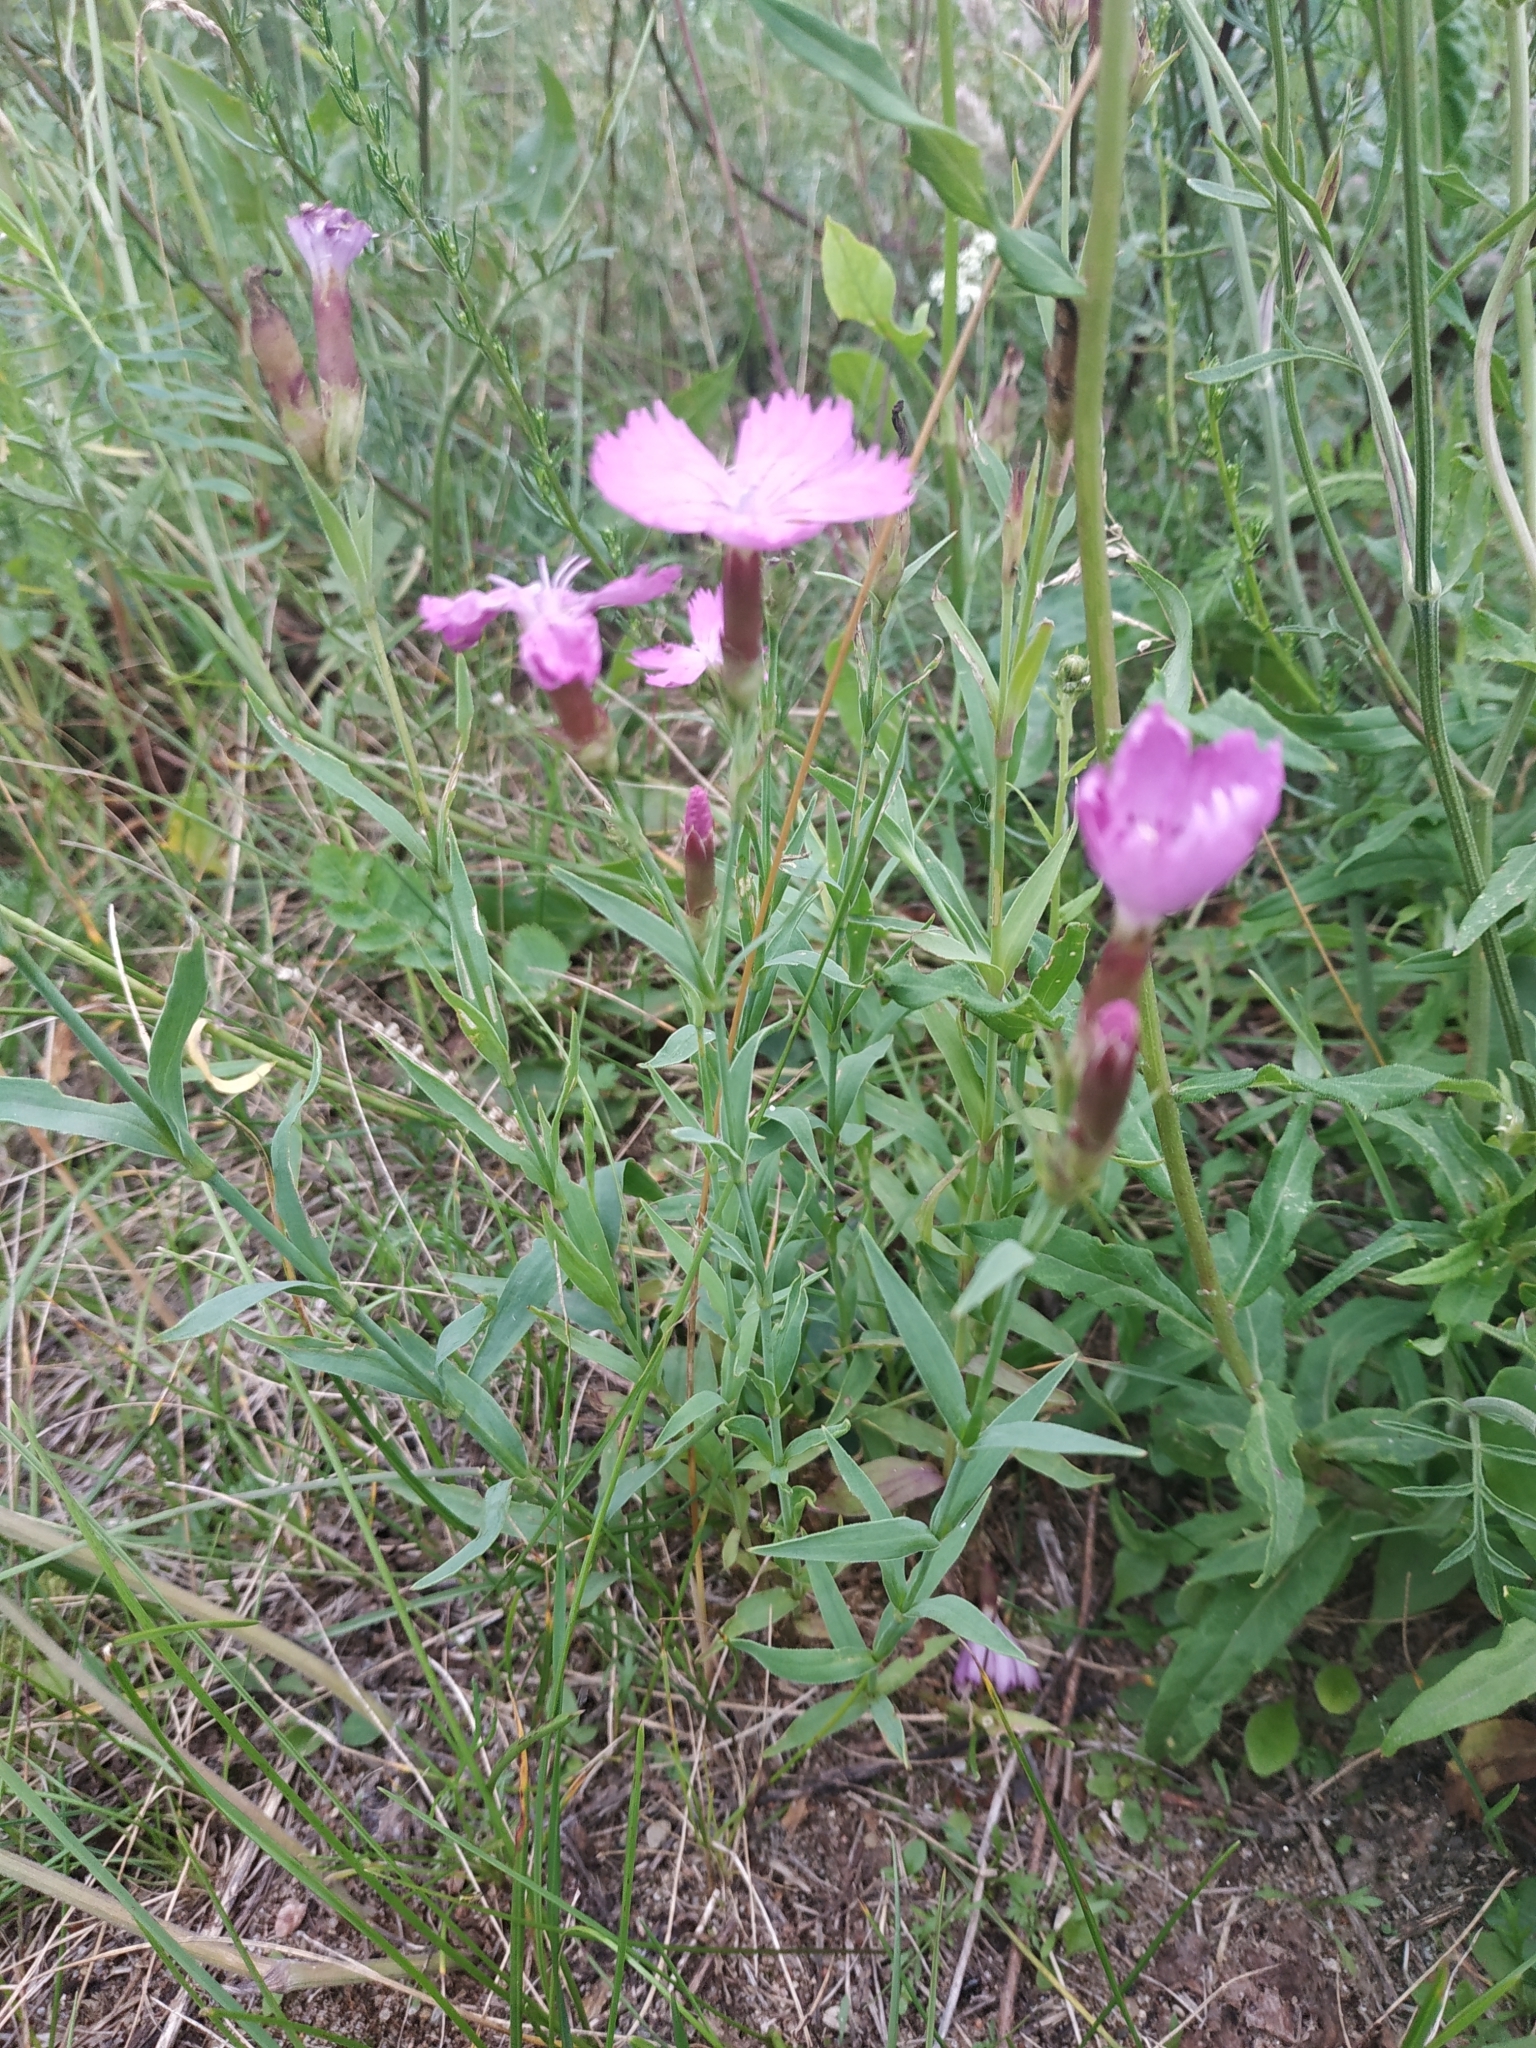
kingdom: Plantae
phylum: Tracheophyta
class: Magnoliopsida
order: Caryophyllales
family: Caryophyllaceae
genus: Dianthus
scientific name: Dianthus chinensis
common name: Rainbow pink
